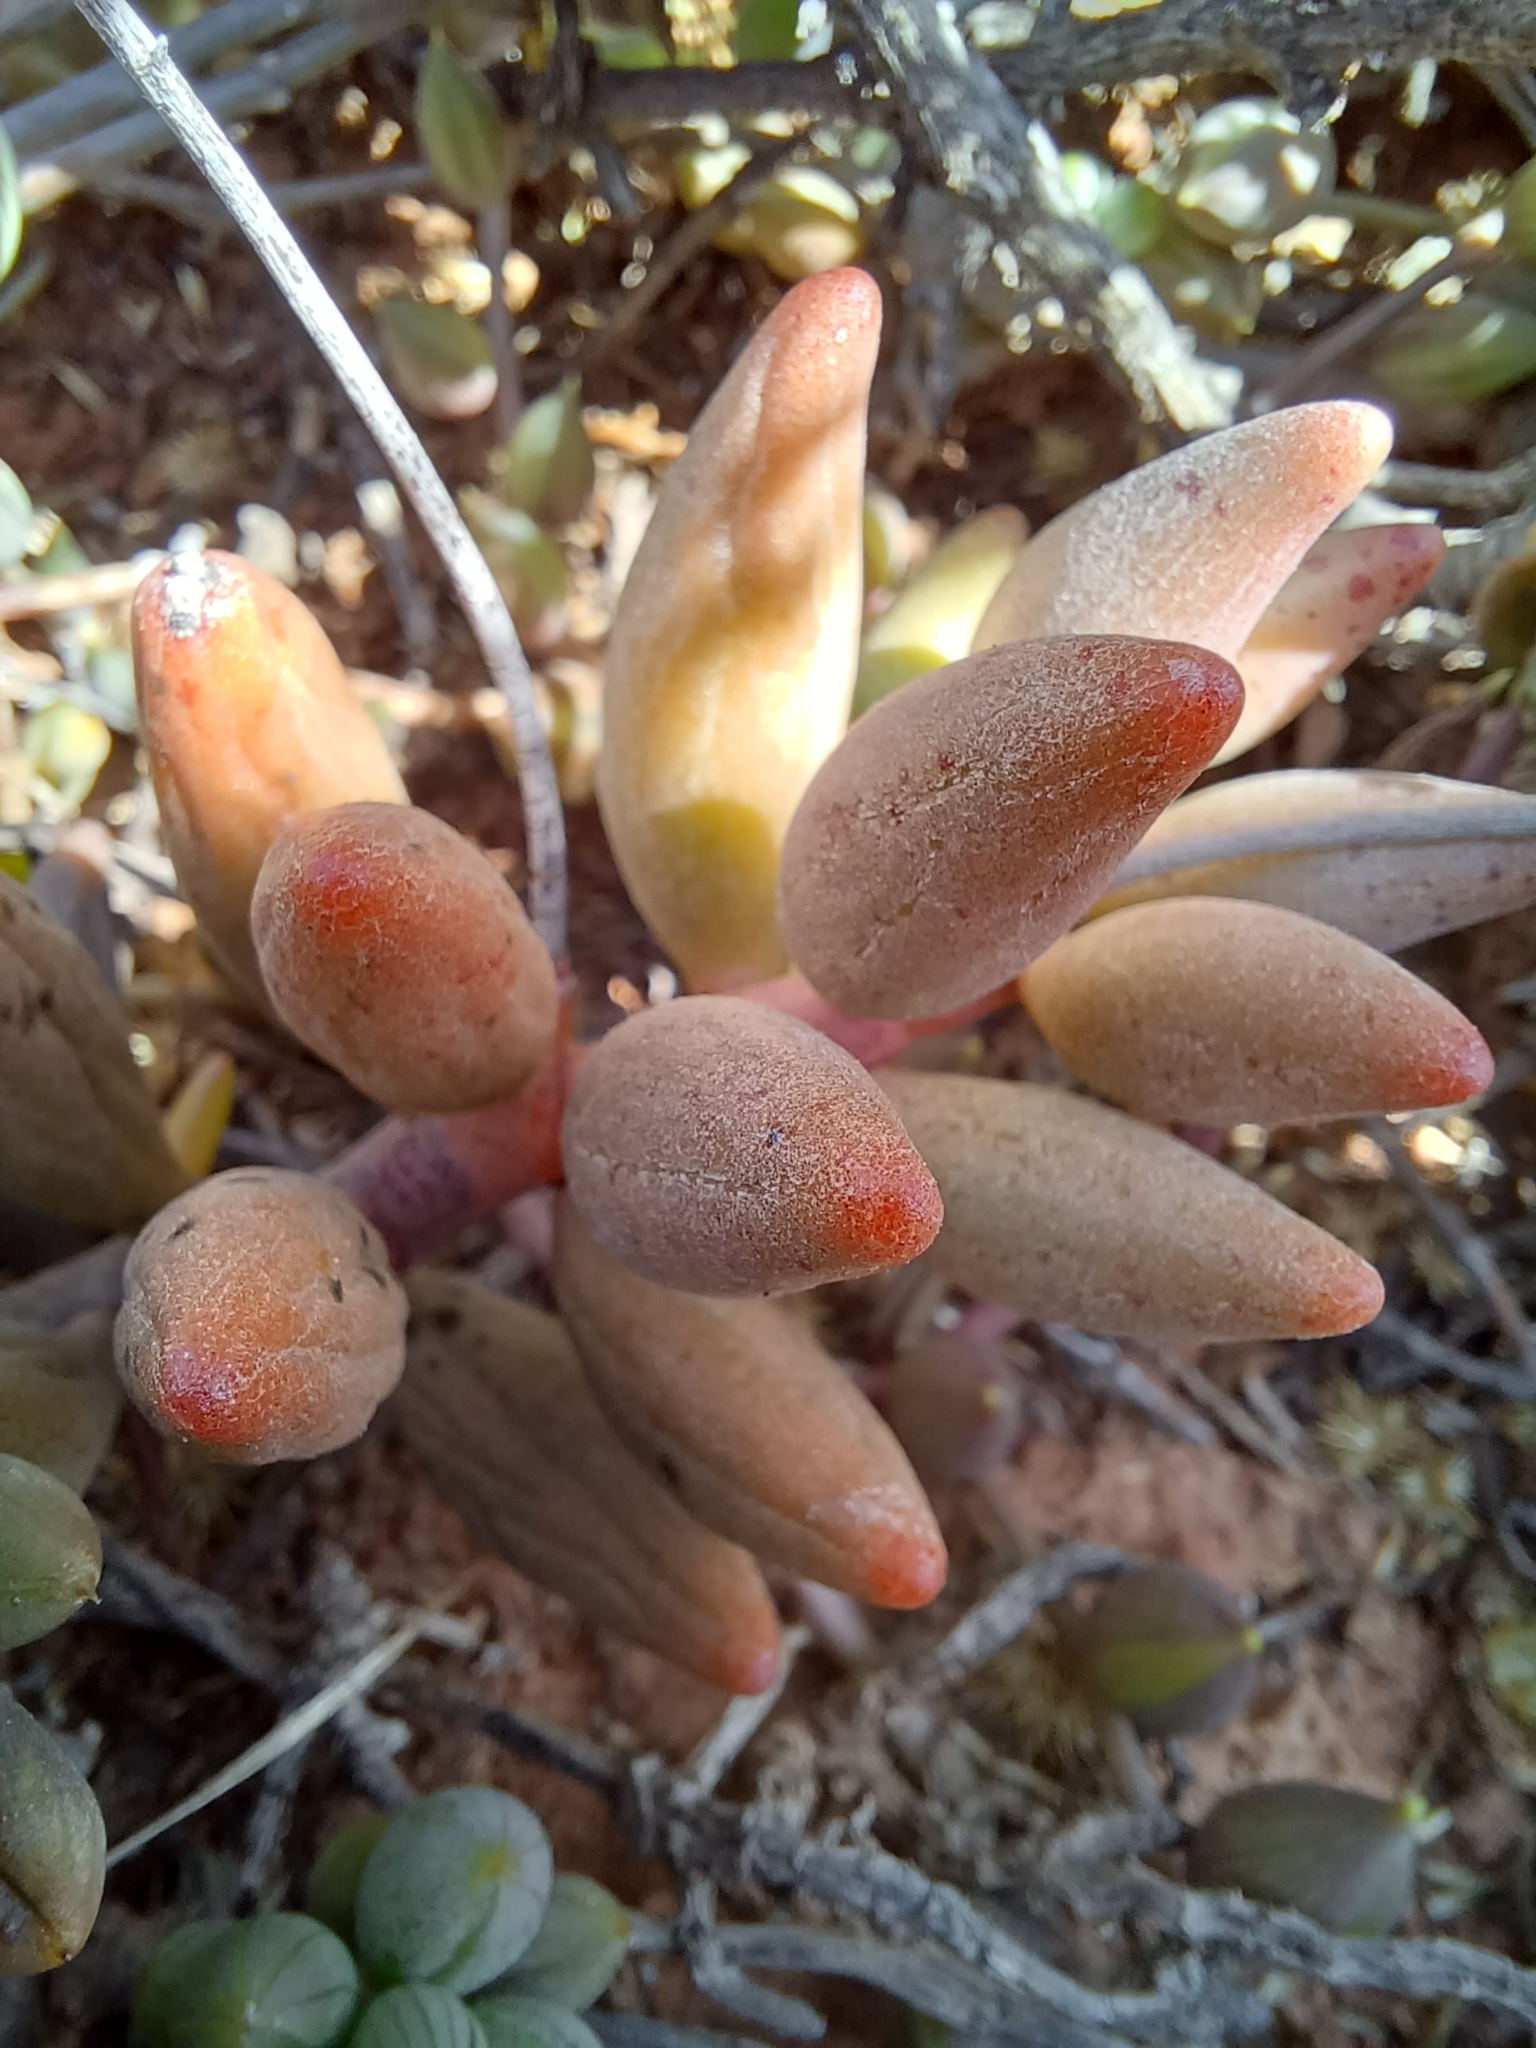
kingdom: Plantae
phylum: Tracheophyta
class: Magnoliopsida
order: Saxifragales
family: Crassulaceae
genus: Adromischus
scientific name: Adromischus filicaulis
